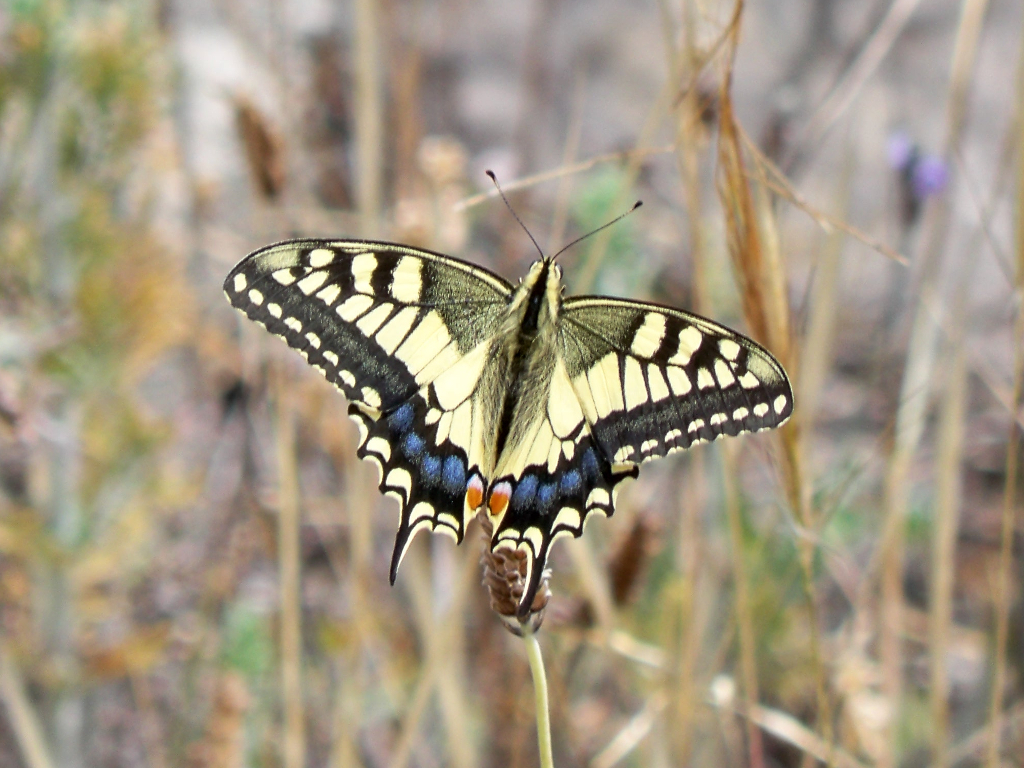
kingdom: Animalia
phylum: Arthropoda
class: Insecta
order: Lepidoptera
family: Papilionidae
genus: Papilio
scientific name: Papilio machaon
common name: Swallowtail
